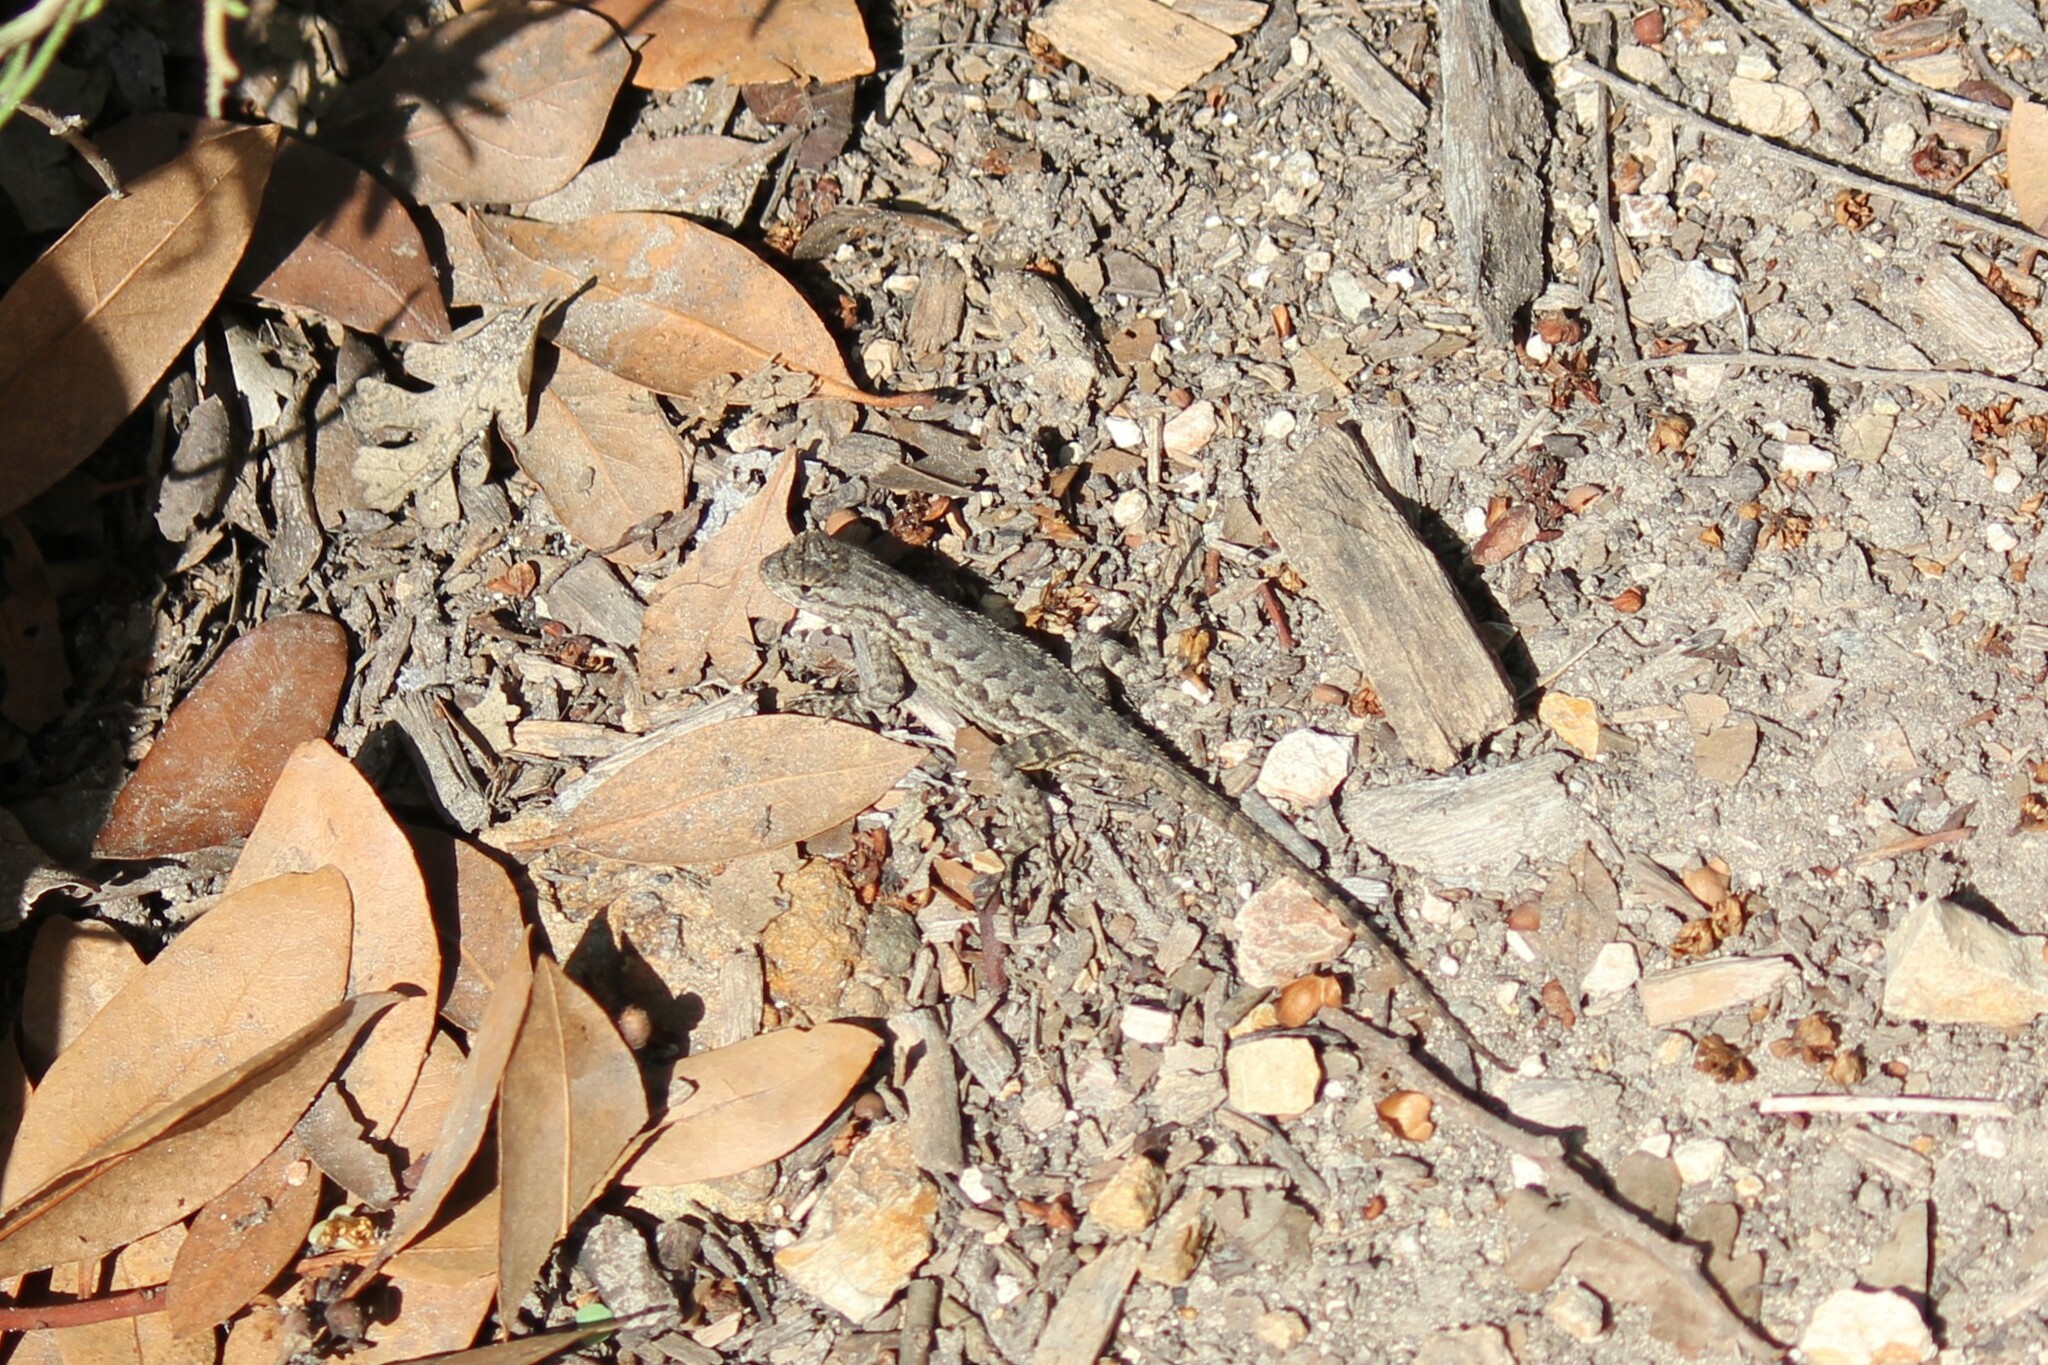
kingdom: Animalia
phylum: Chordata
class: Squamata
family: Phrynosomatidae
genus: Sceloporus
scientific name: Sceloporus occidentalis
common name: Western fence lizard
